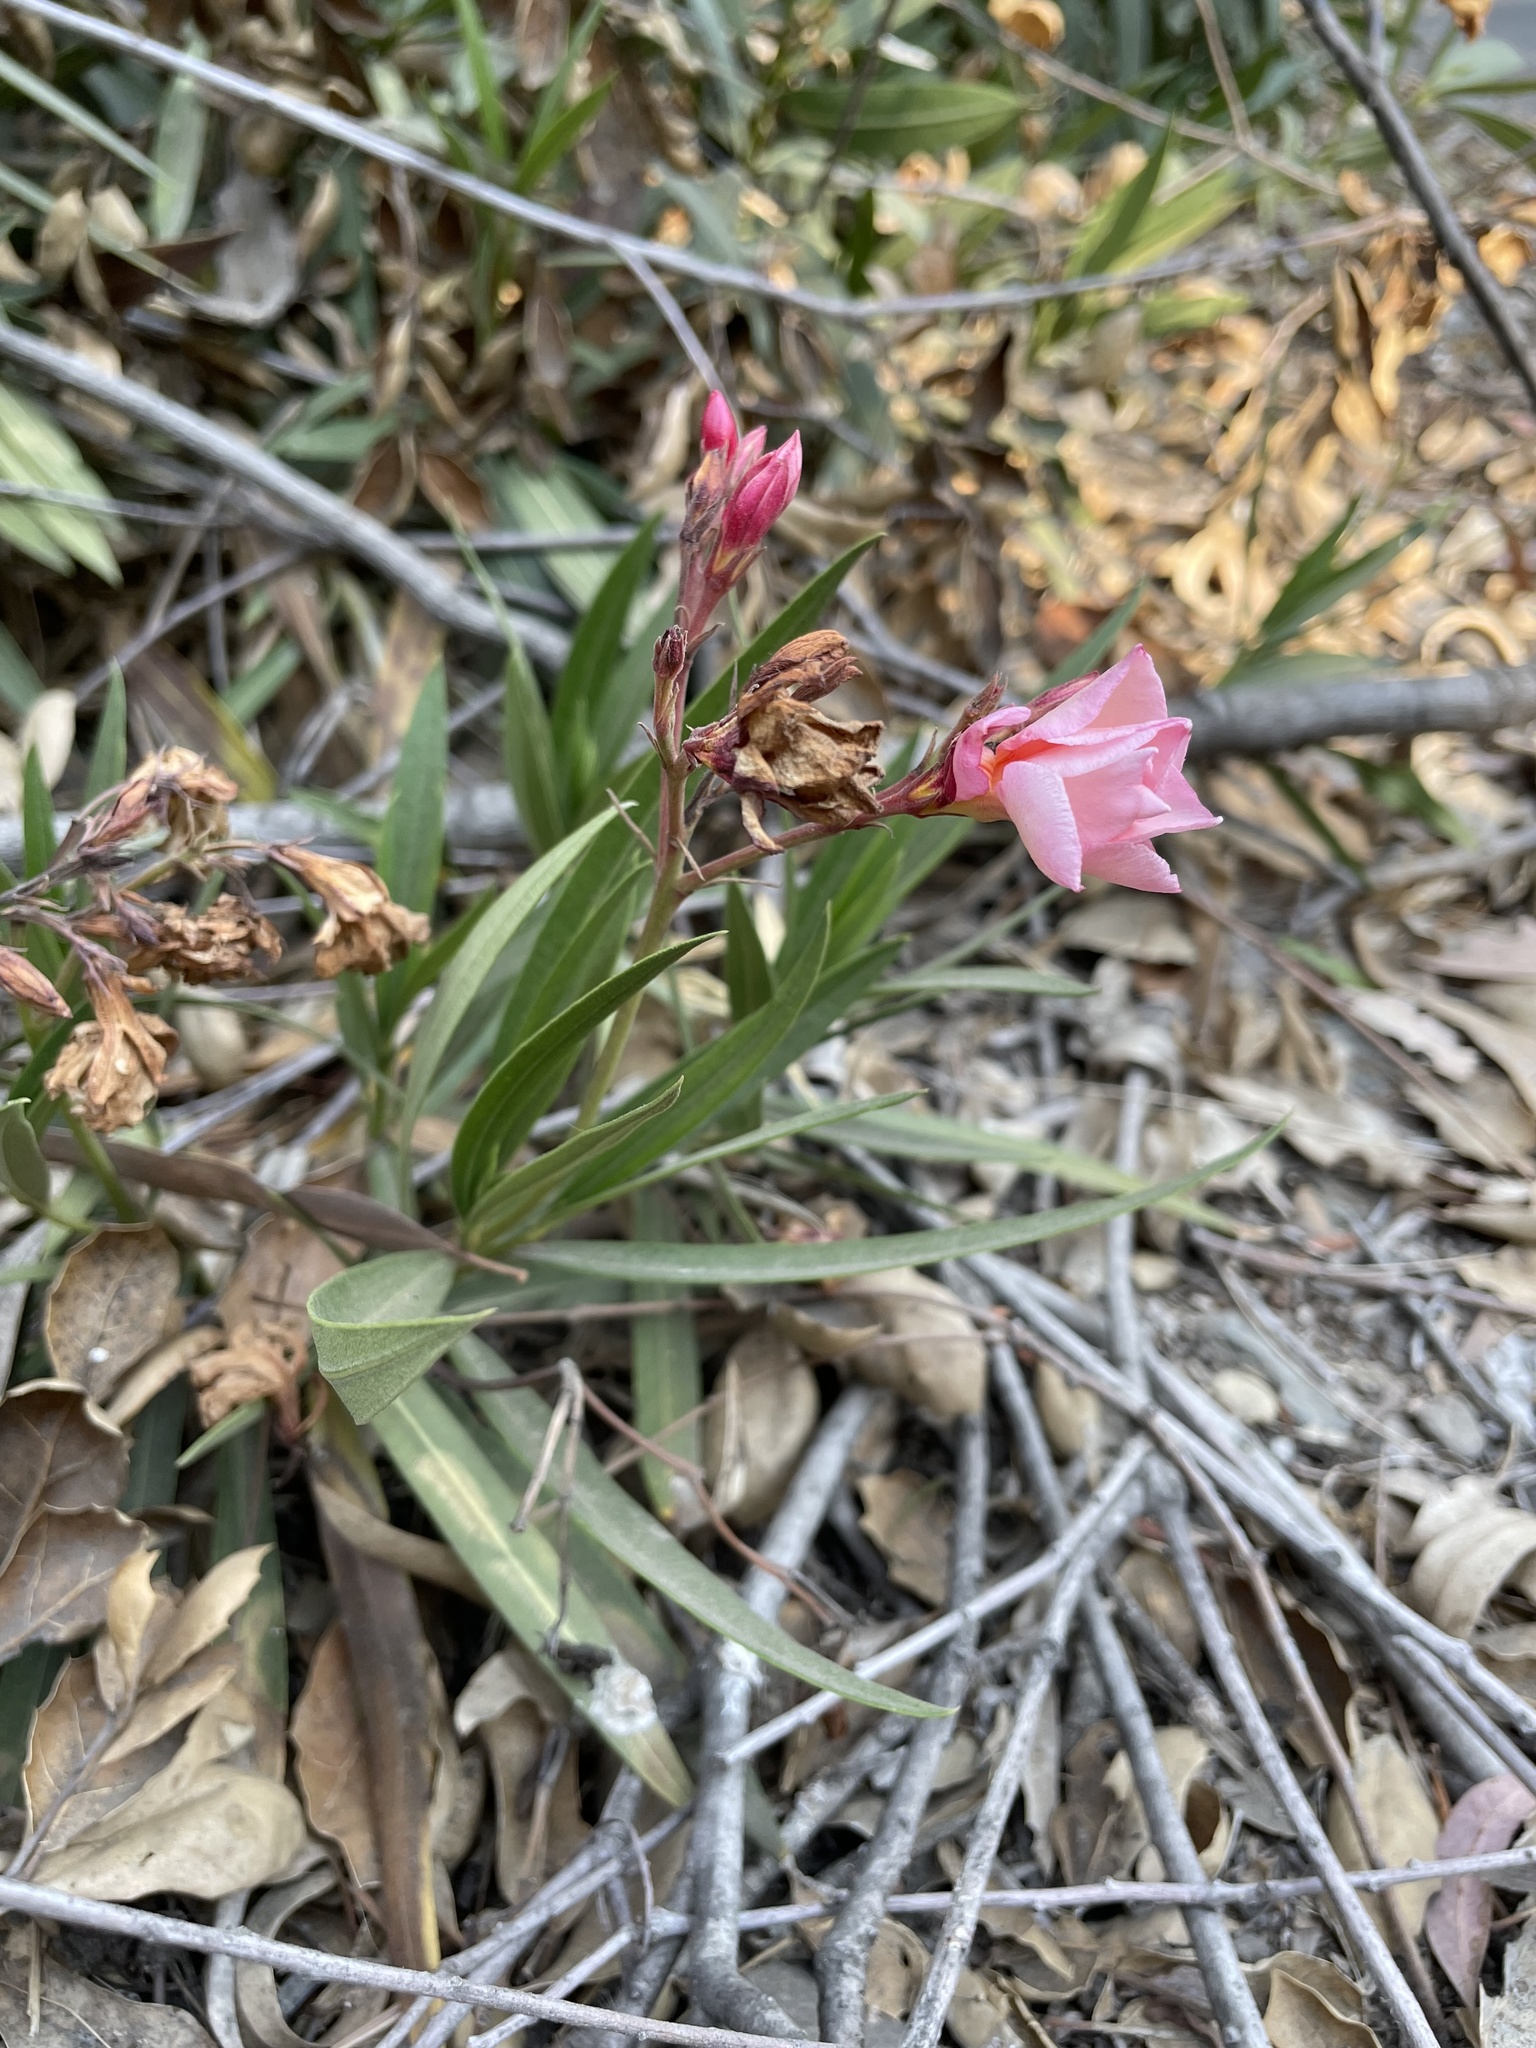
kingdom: Plantae
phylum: Tracheophyta
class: Magnoliopsida
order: Gentianales
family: Apocynaceae
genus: Nerium
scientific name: Nerium oleander
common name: Oleander
